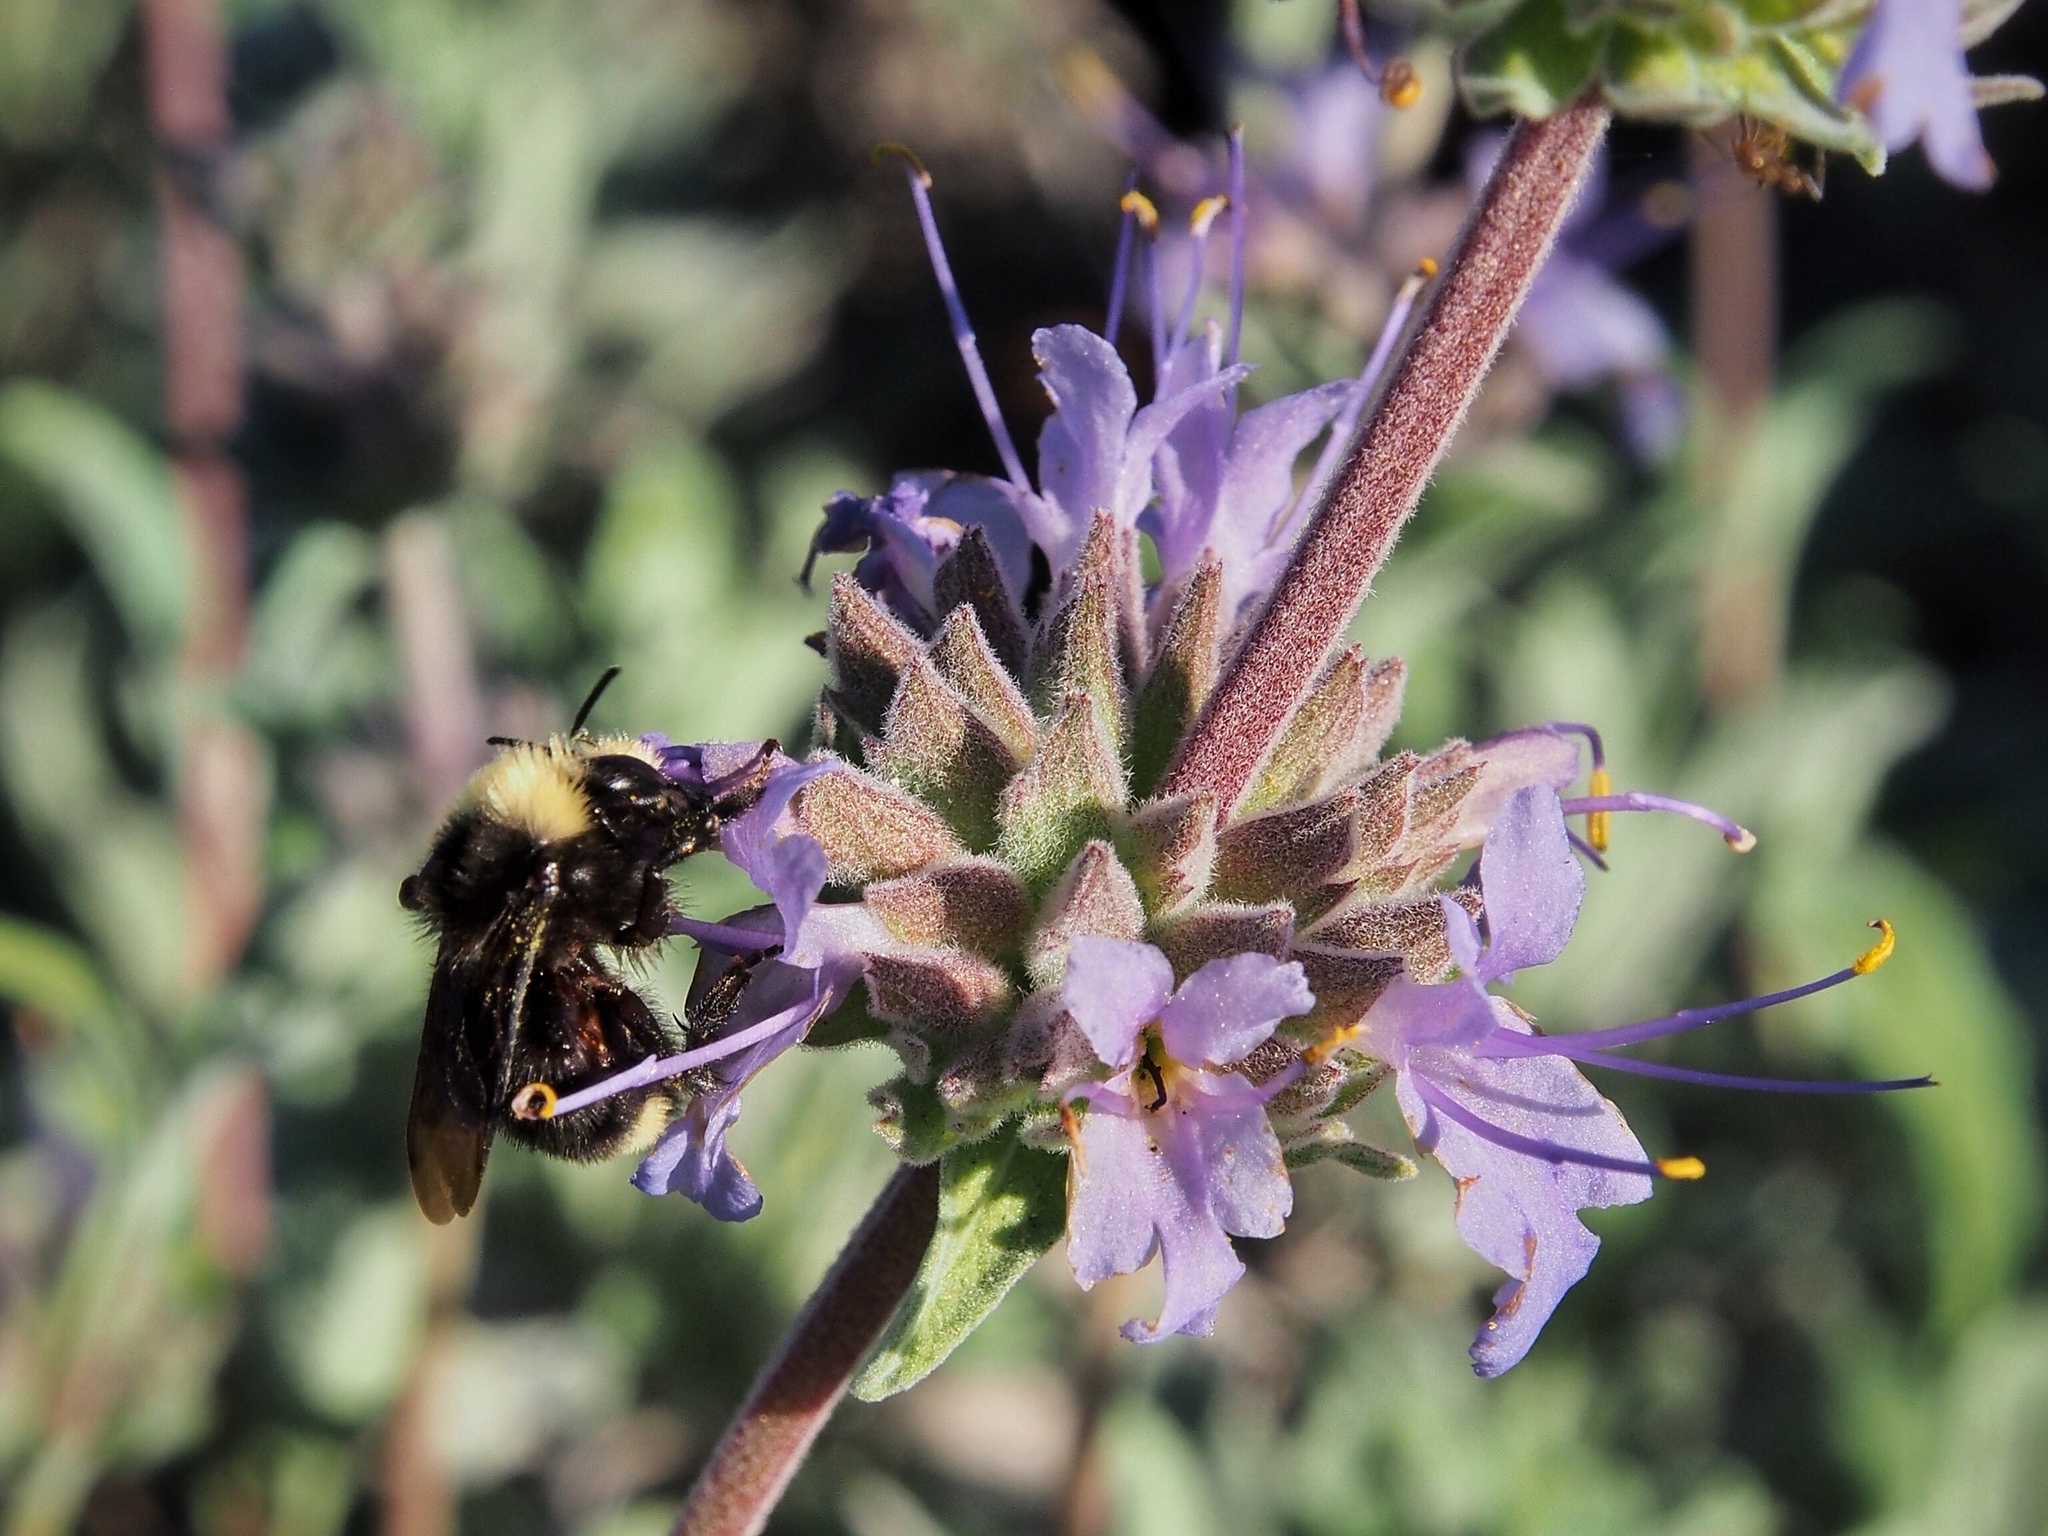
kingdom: Animalia
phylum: Arthropoda
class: Insecta
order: Hymenoptera
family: Apidae
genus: Bombus
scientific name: Bombus vosnesenskii
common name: Vosnesensky bumble bee
